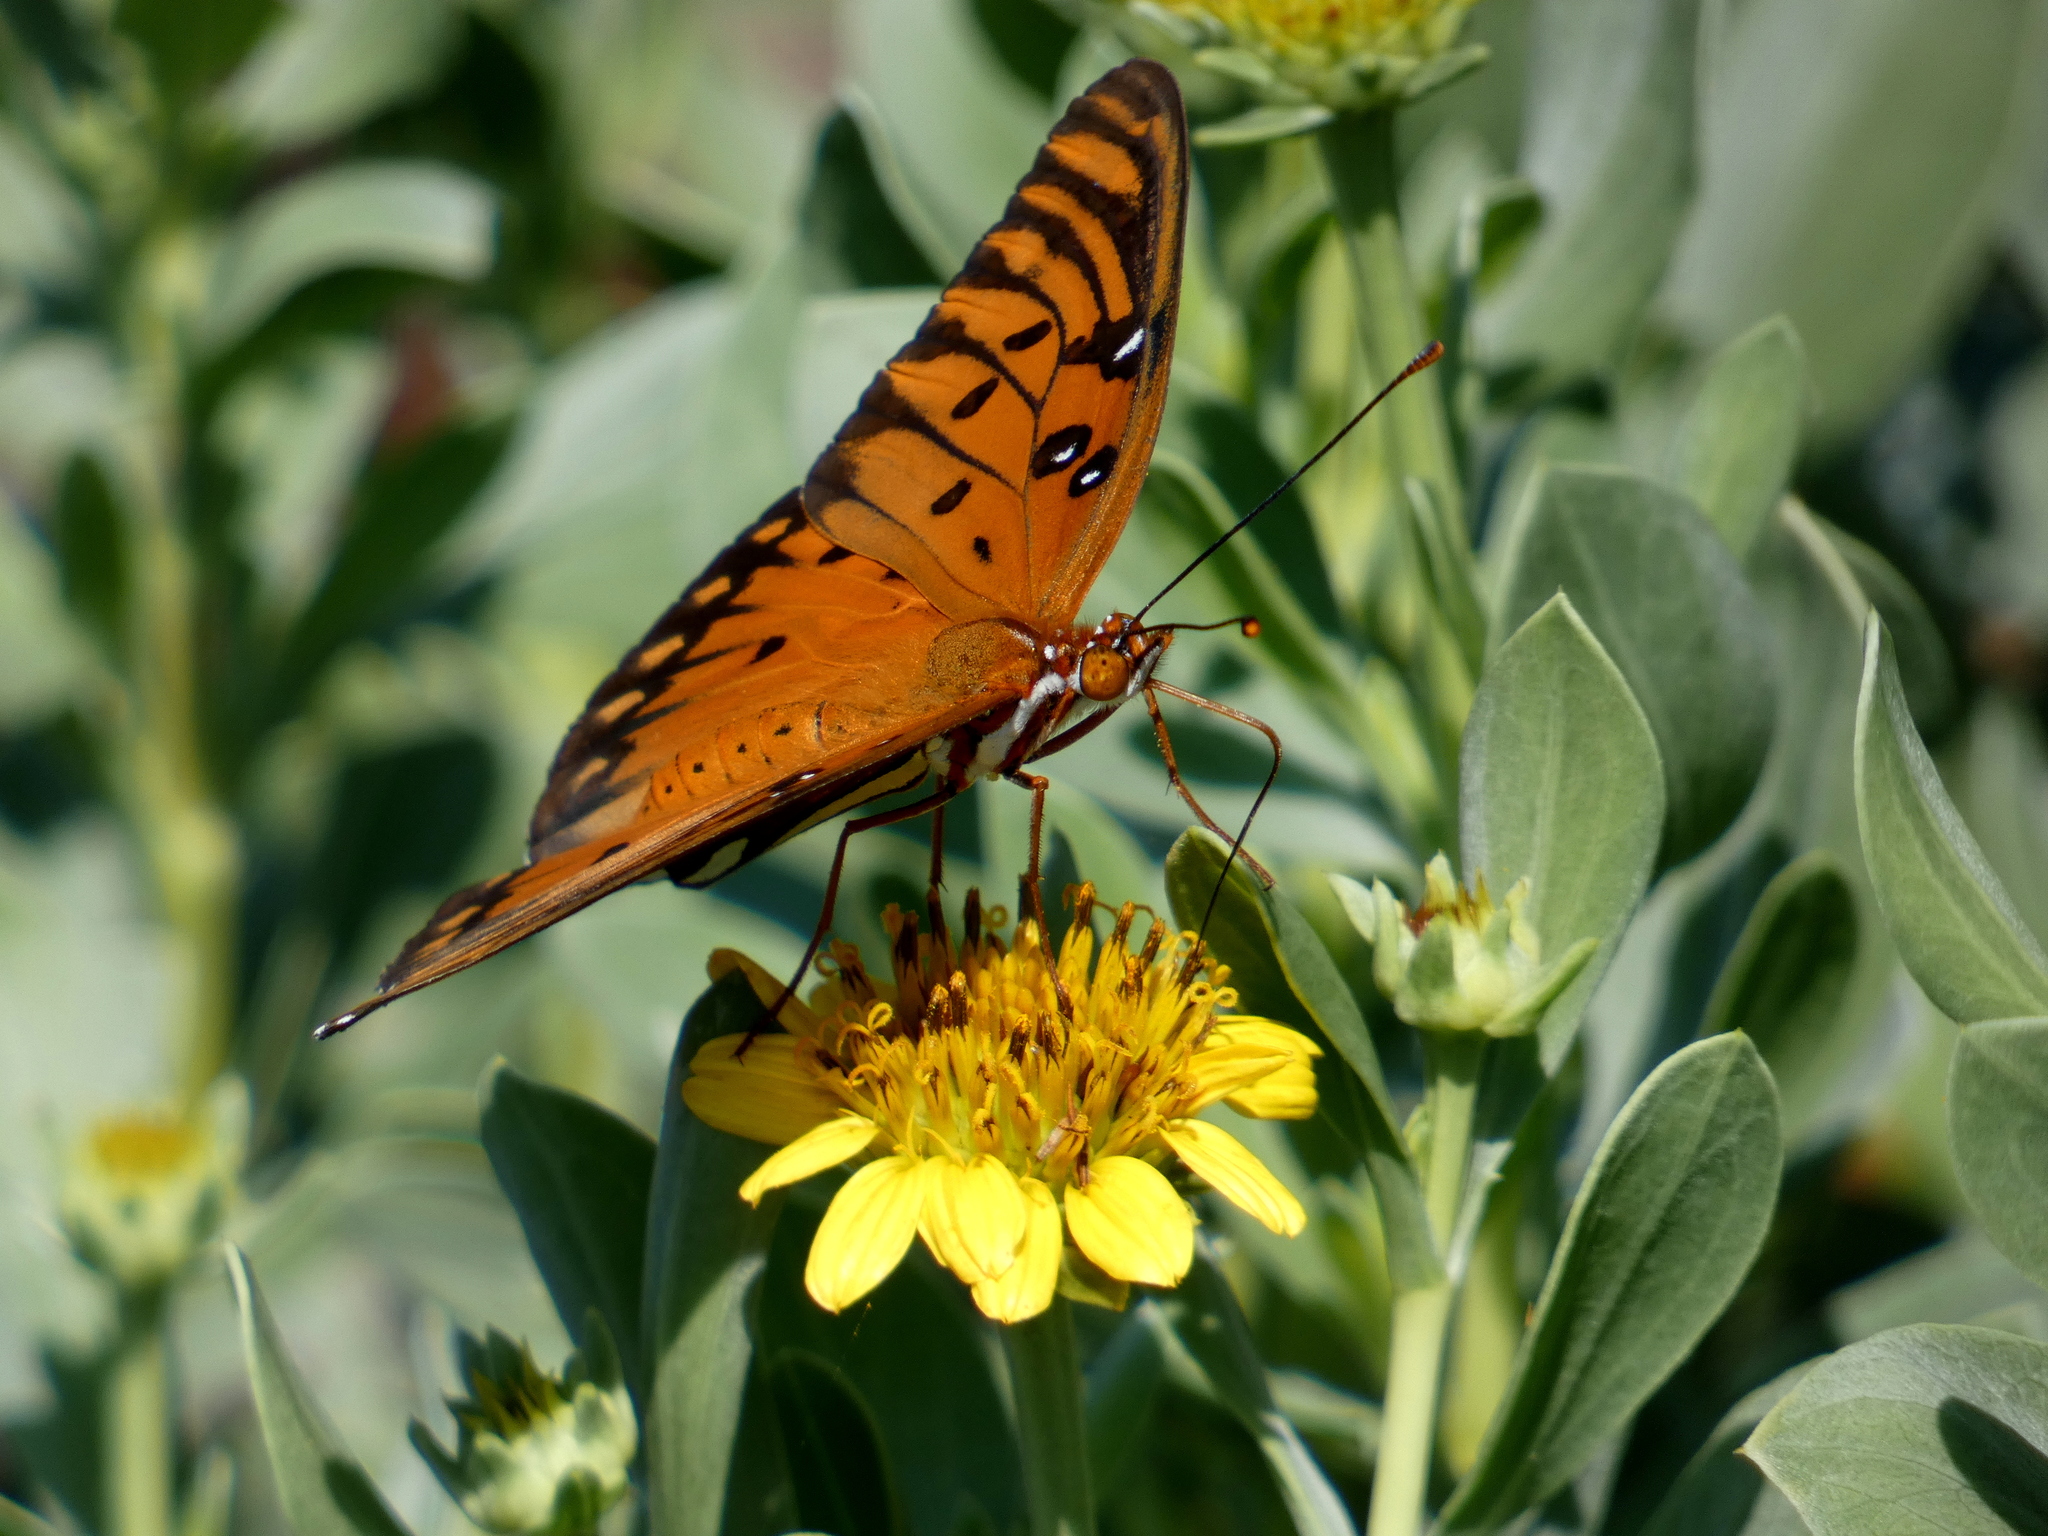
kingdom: Animalia
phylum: Arthropoda
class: Insecta
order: Lepidoptera
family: Nymphalidae
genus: Dione
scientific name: Dione vanillae
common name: Gulf fritillary
